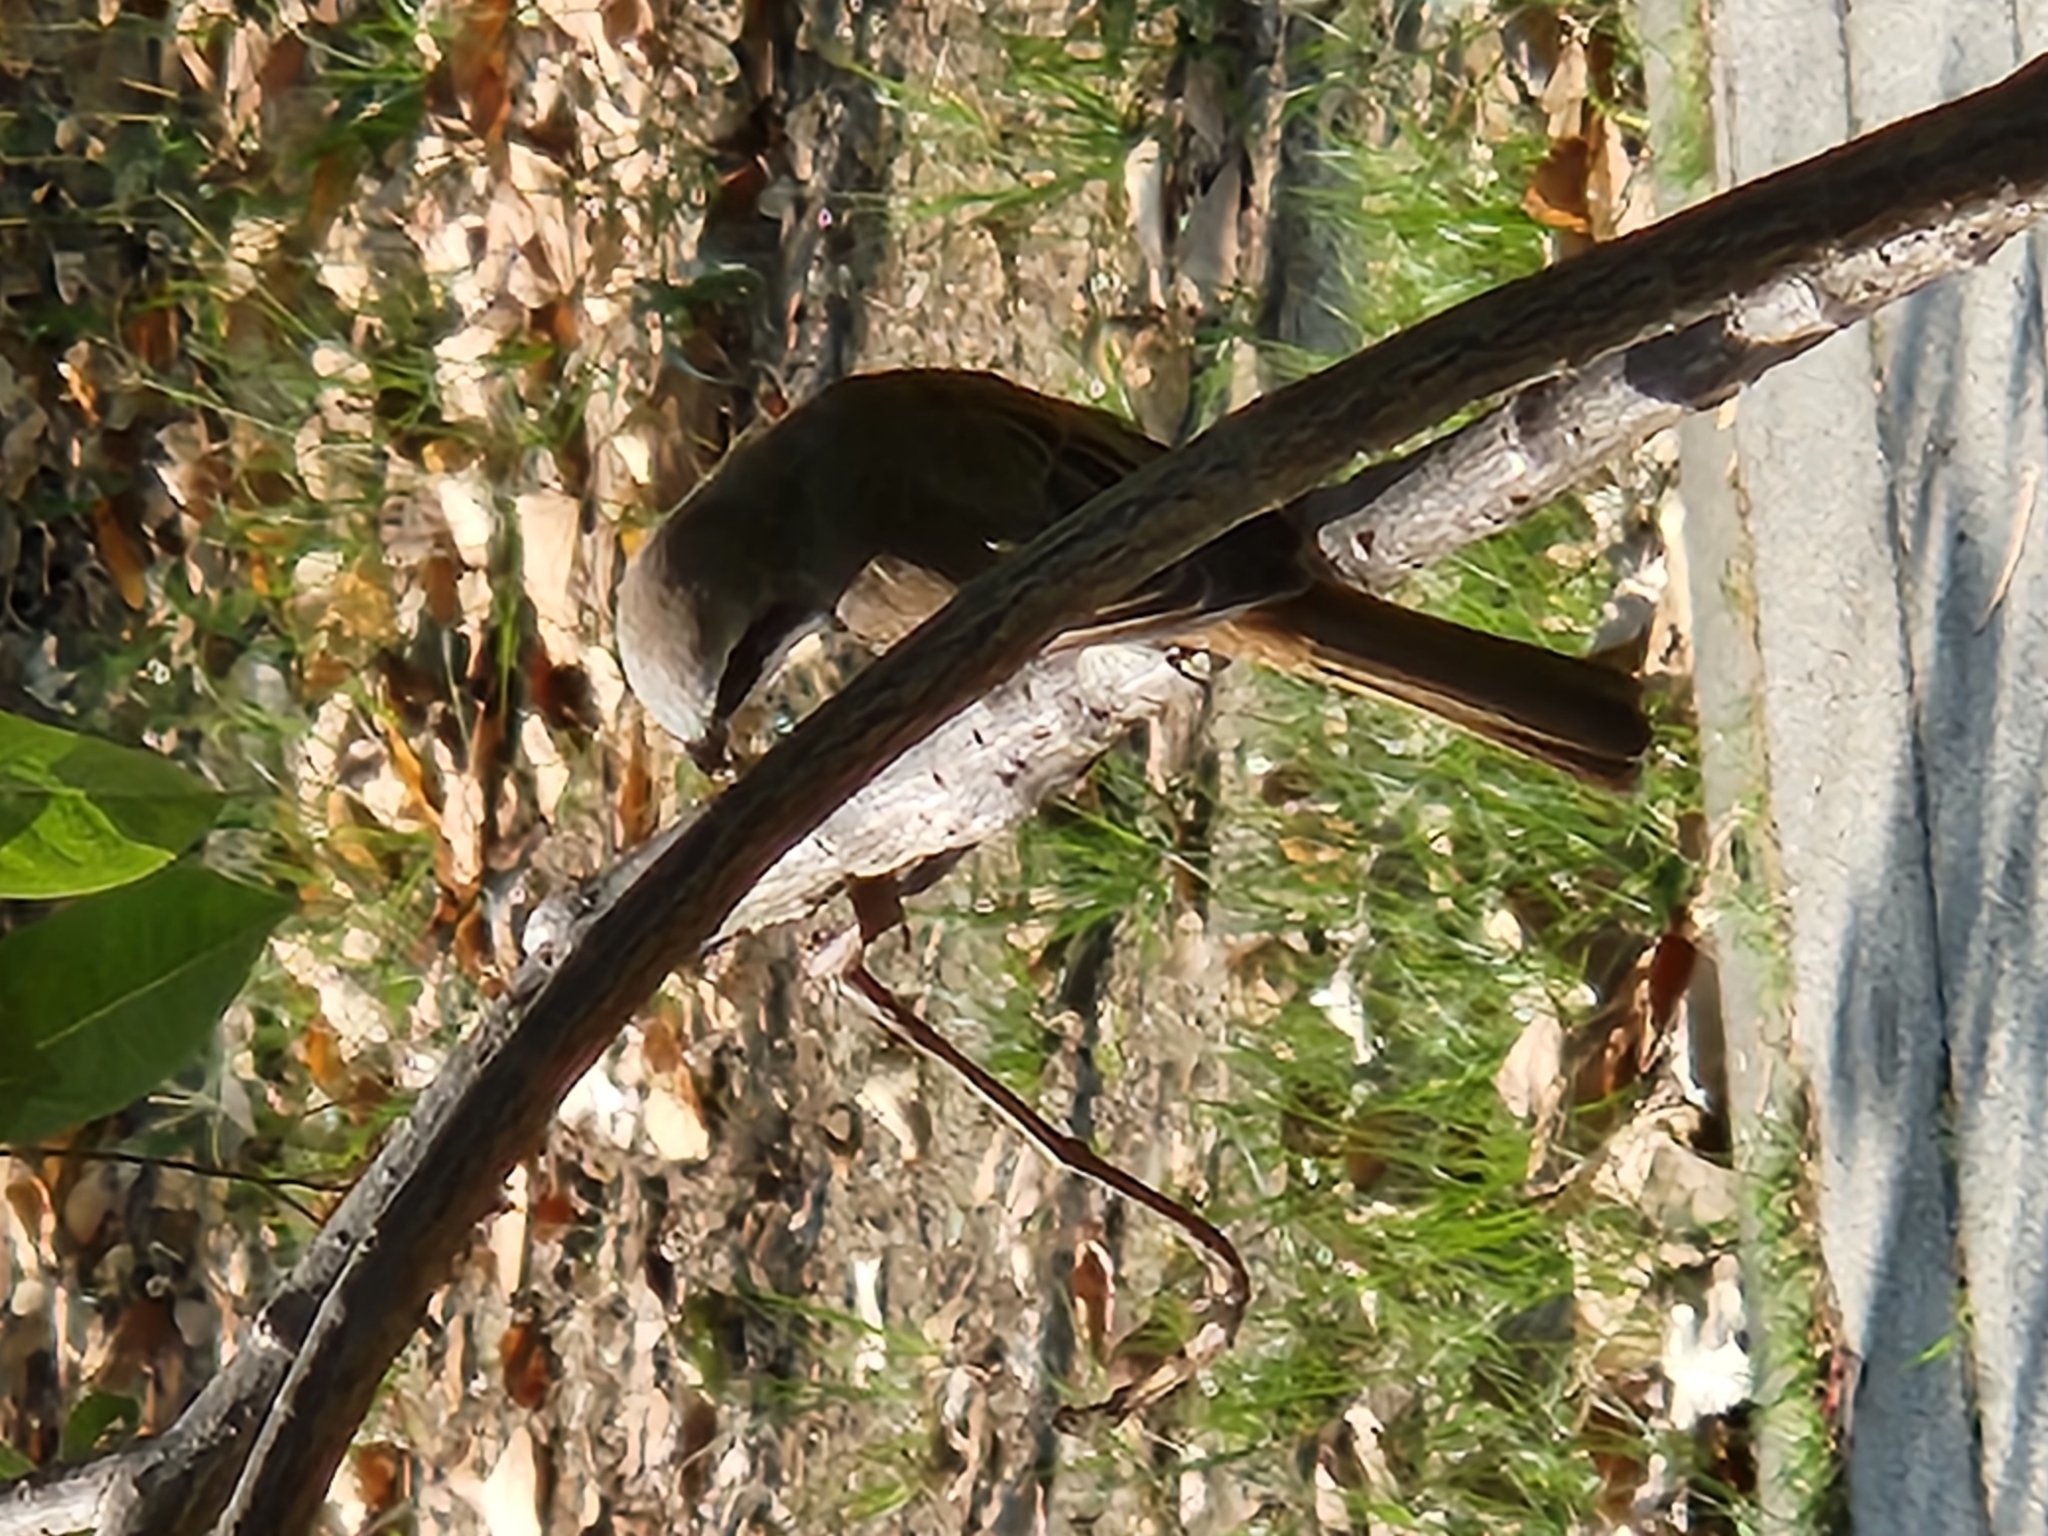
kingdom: Animalia
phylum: Chordata
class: Aves
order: Passeriformes
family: Laniidae
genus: Lanius
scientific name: Lanius schach
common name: Long-tailed shrike
